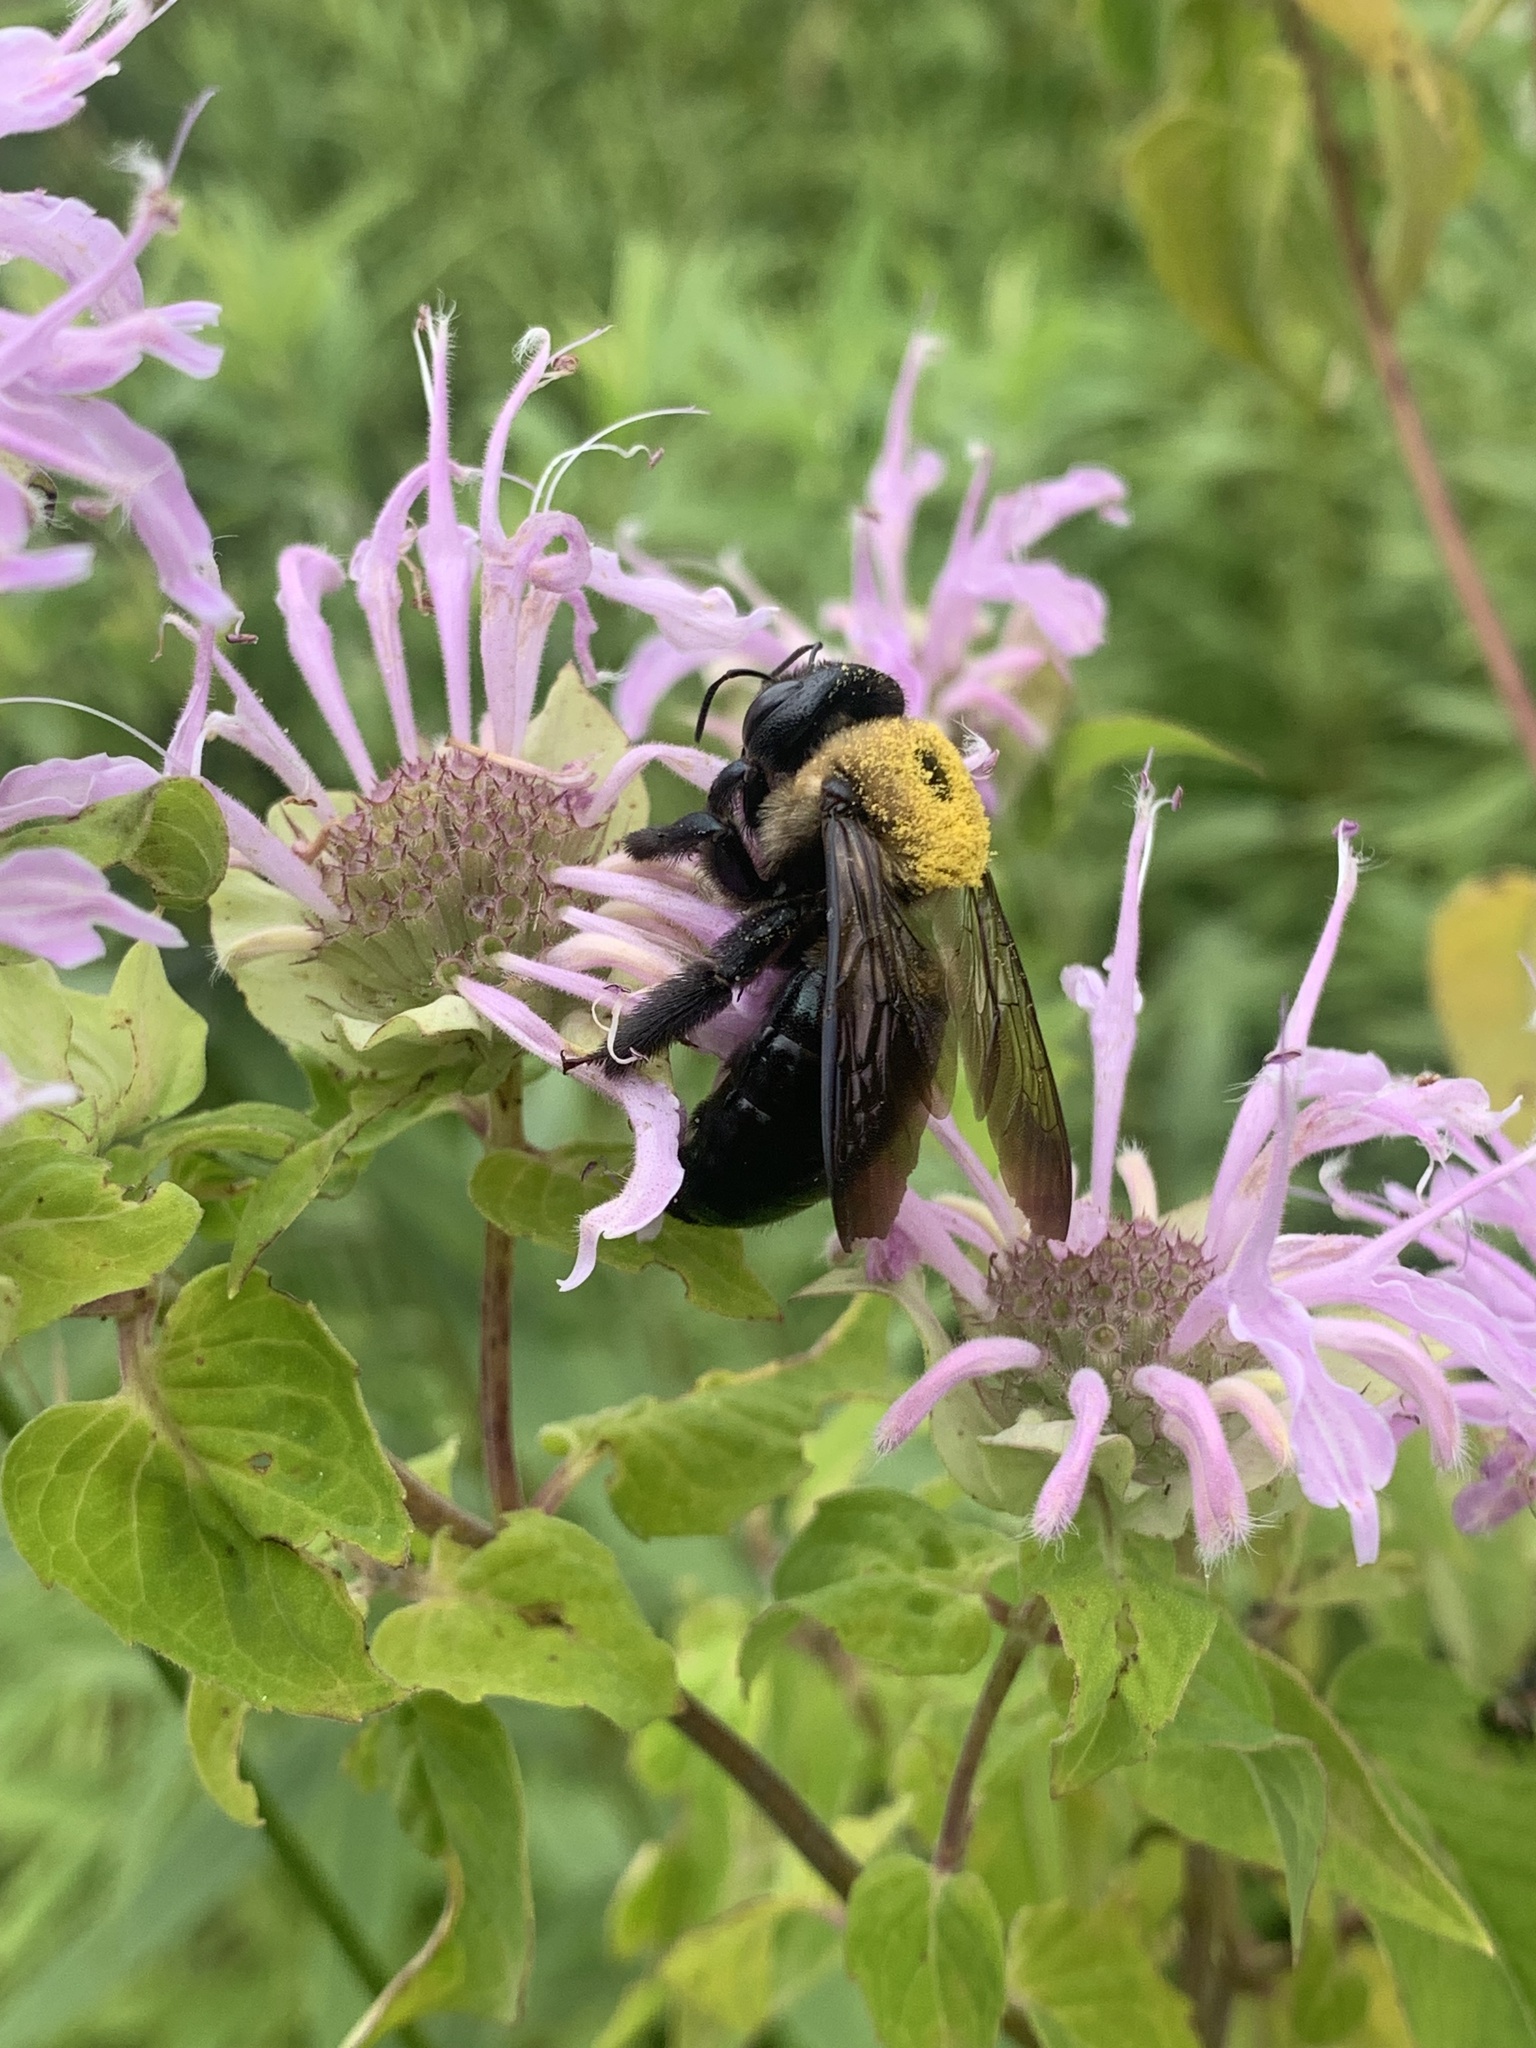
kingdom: Animalia
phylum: Arthropoda
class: Insecta
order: Hymenoptera
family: Apidae
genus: Xylocopa
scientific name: Xylocopa virginica
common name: Carpenter bee
